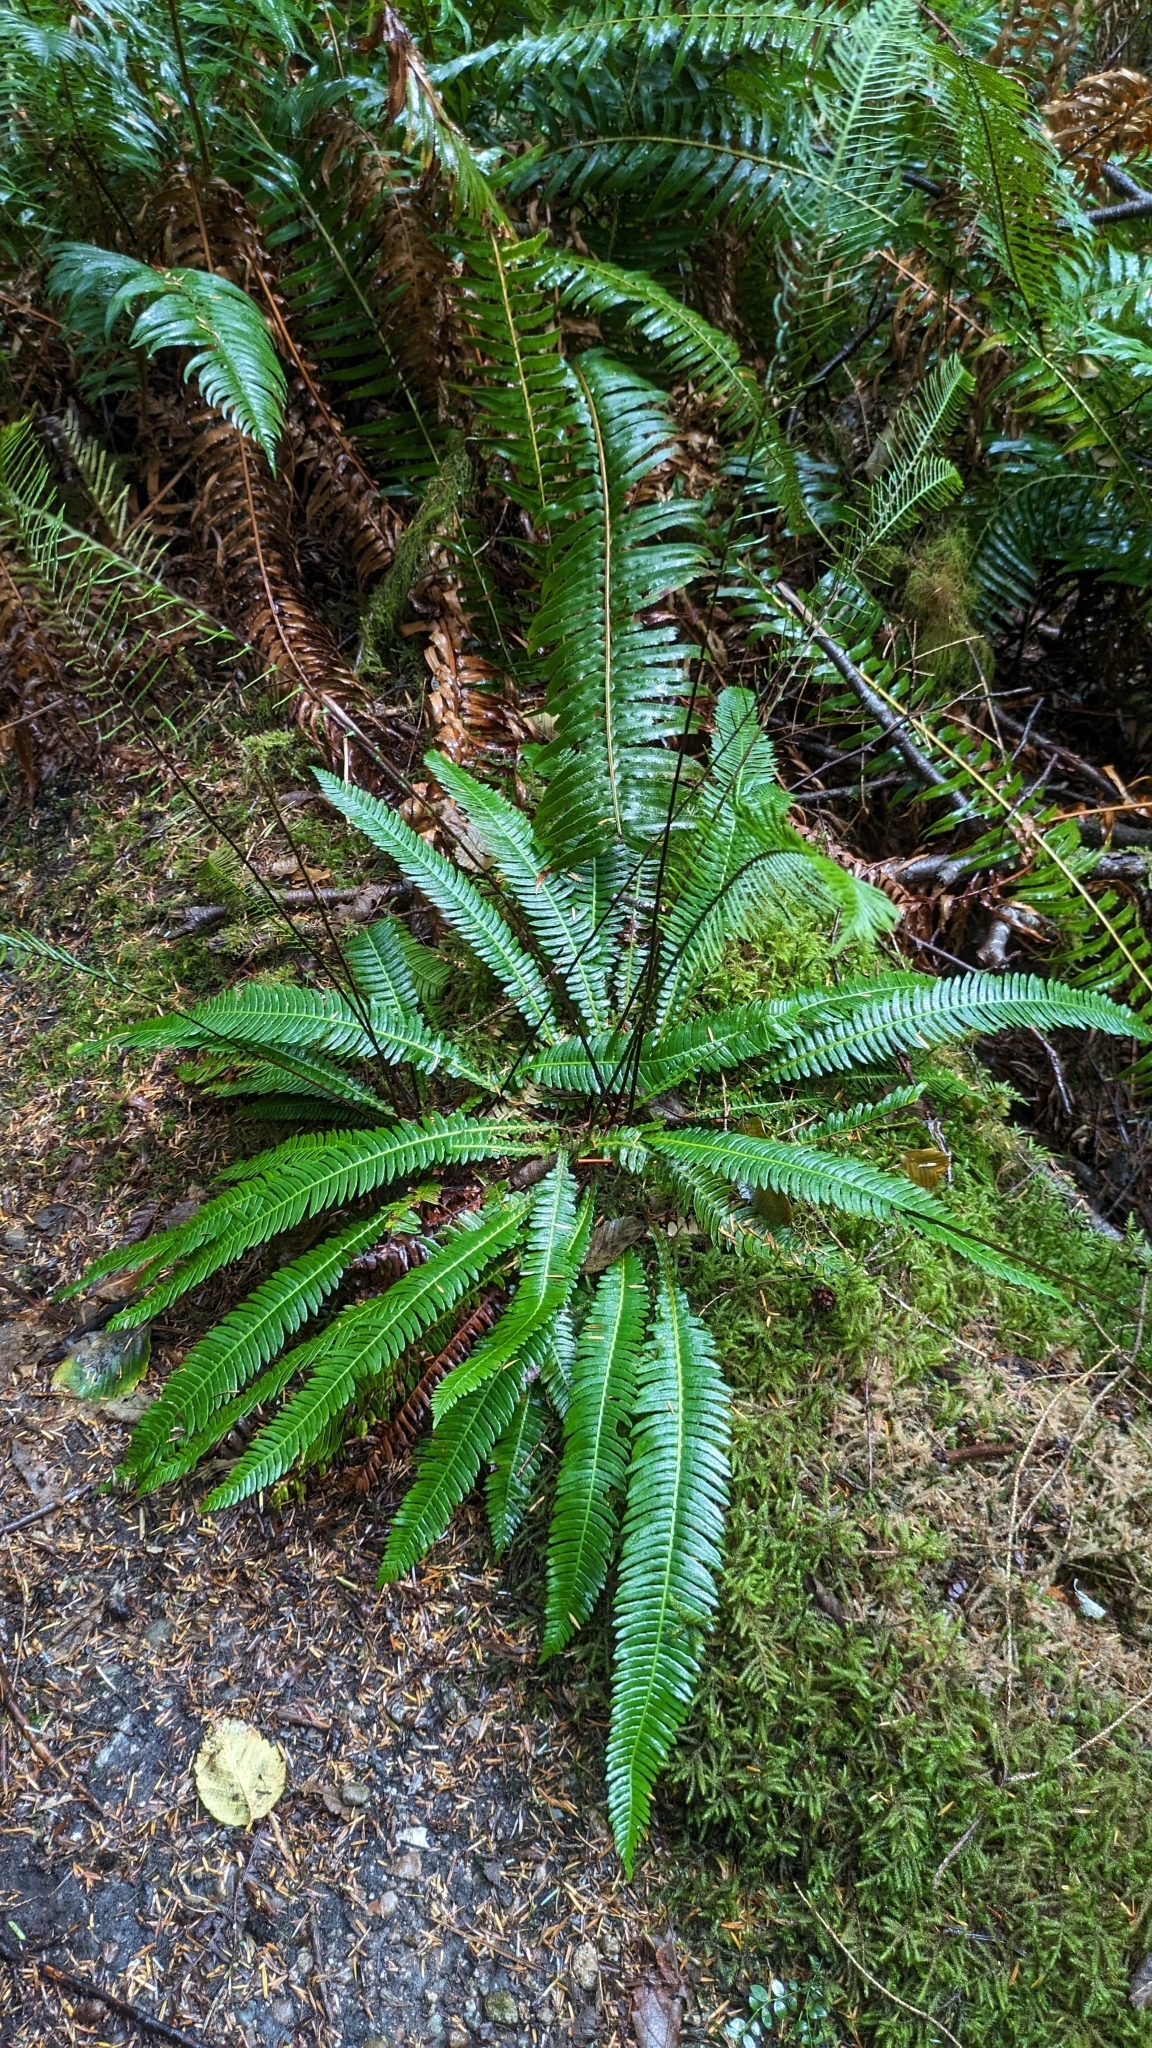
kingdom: Plantae
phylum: Tracheophyta
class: Polypodiopsida
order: Polypodiales
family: Blechnaceae
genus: Struthiopteris
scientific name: Struthiopteris spicant
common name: Deer fern
